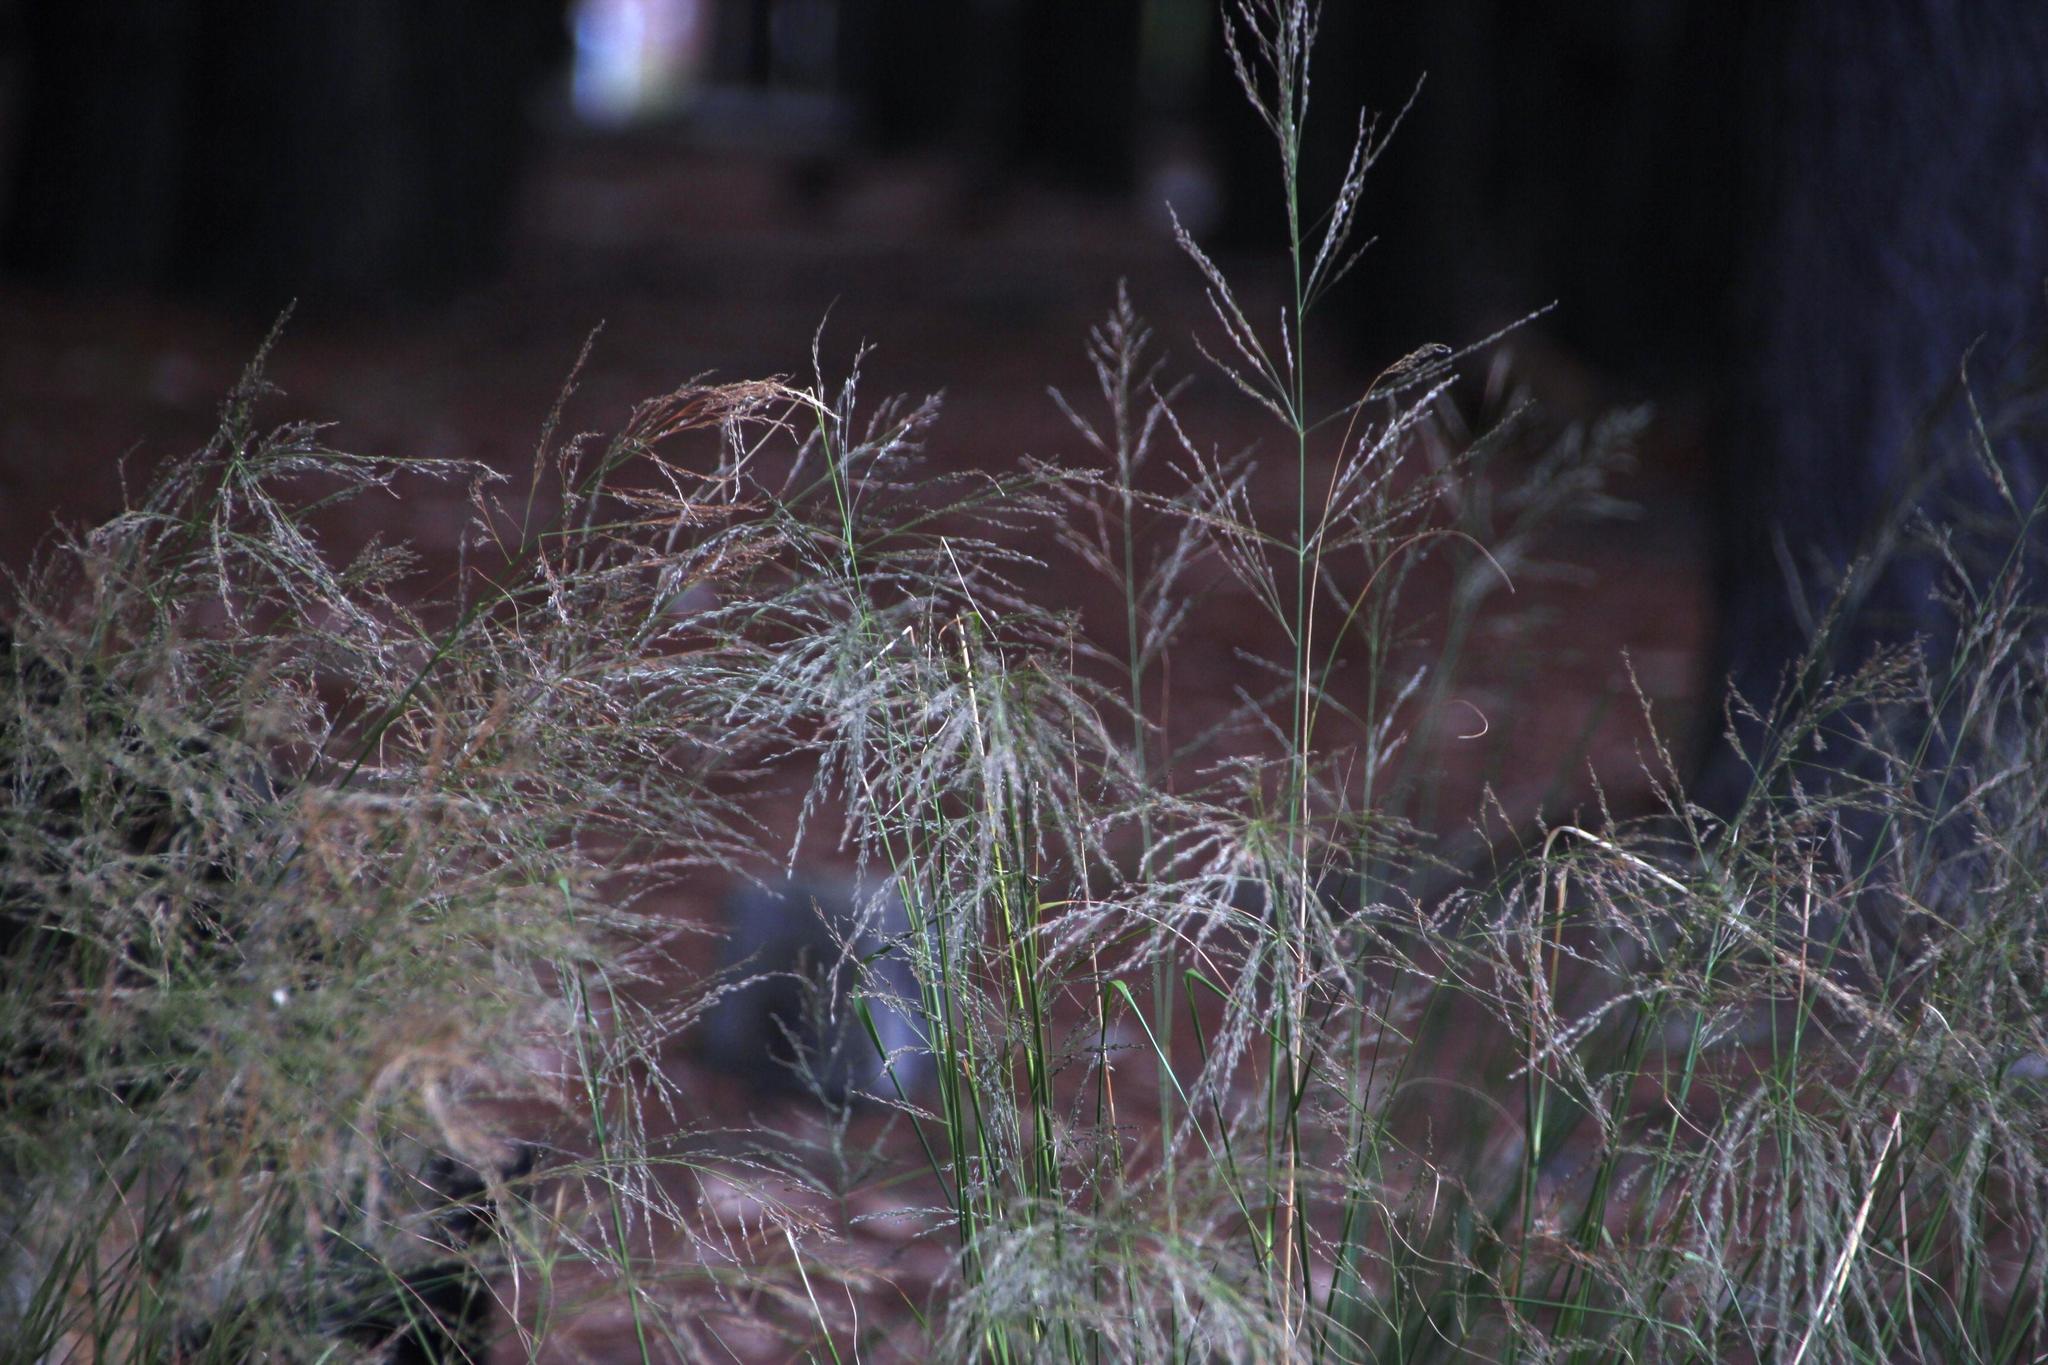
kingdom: Plantae
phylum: Tracheophyta
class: Liliopsida
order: Poales
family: Poaceae
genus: Eragrostis
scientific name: Eragrostis curvula
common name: African love-grass
